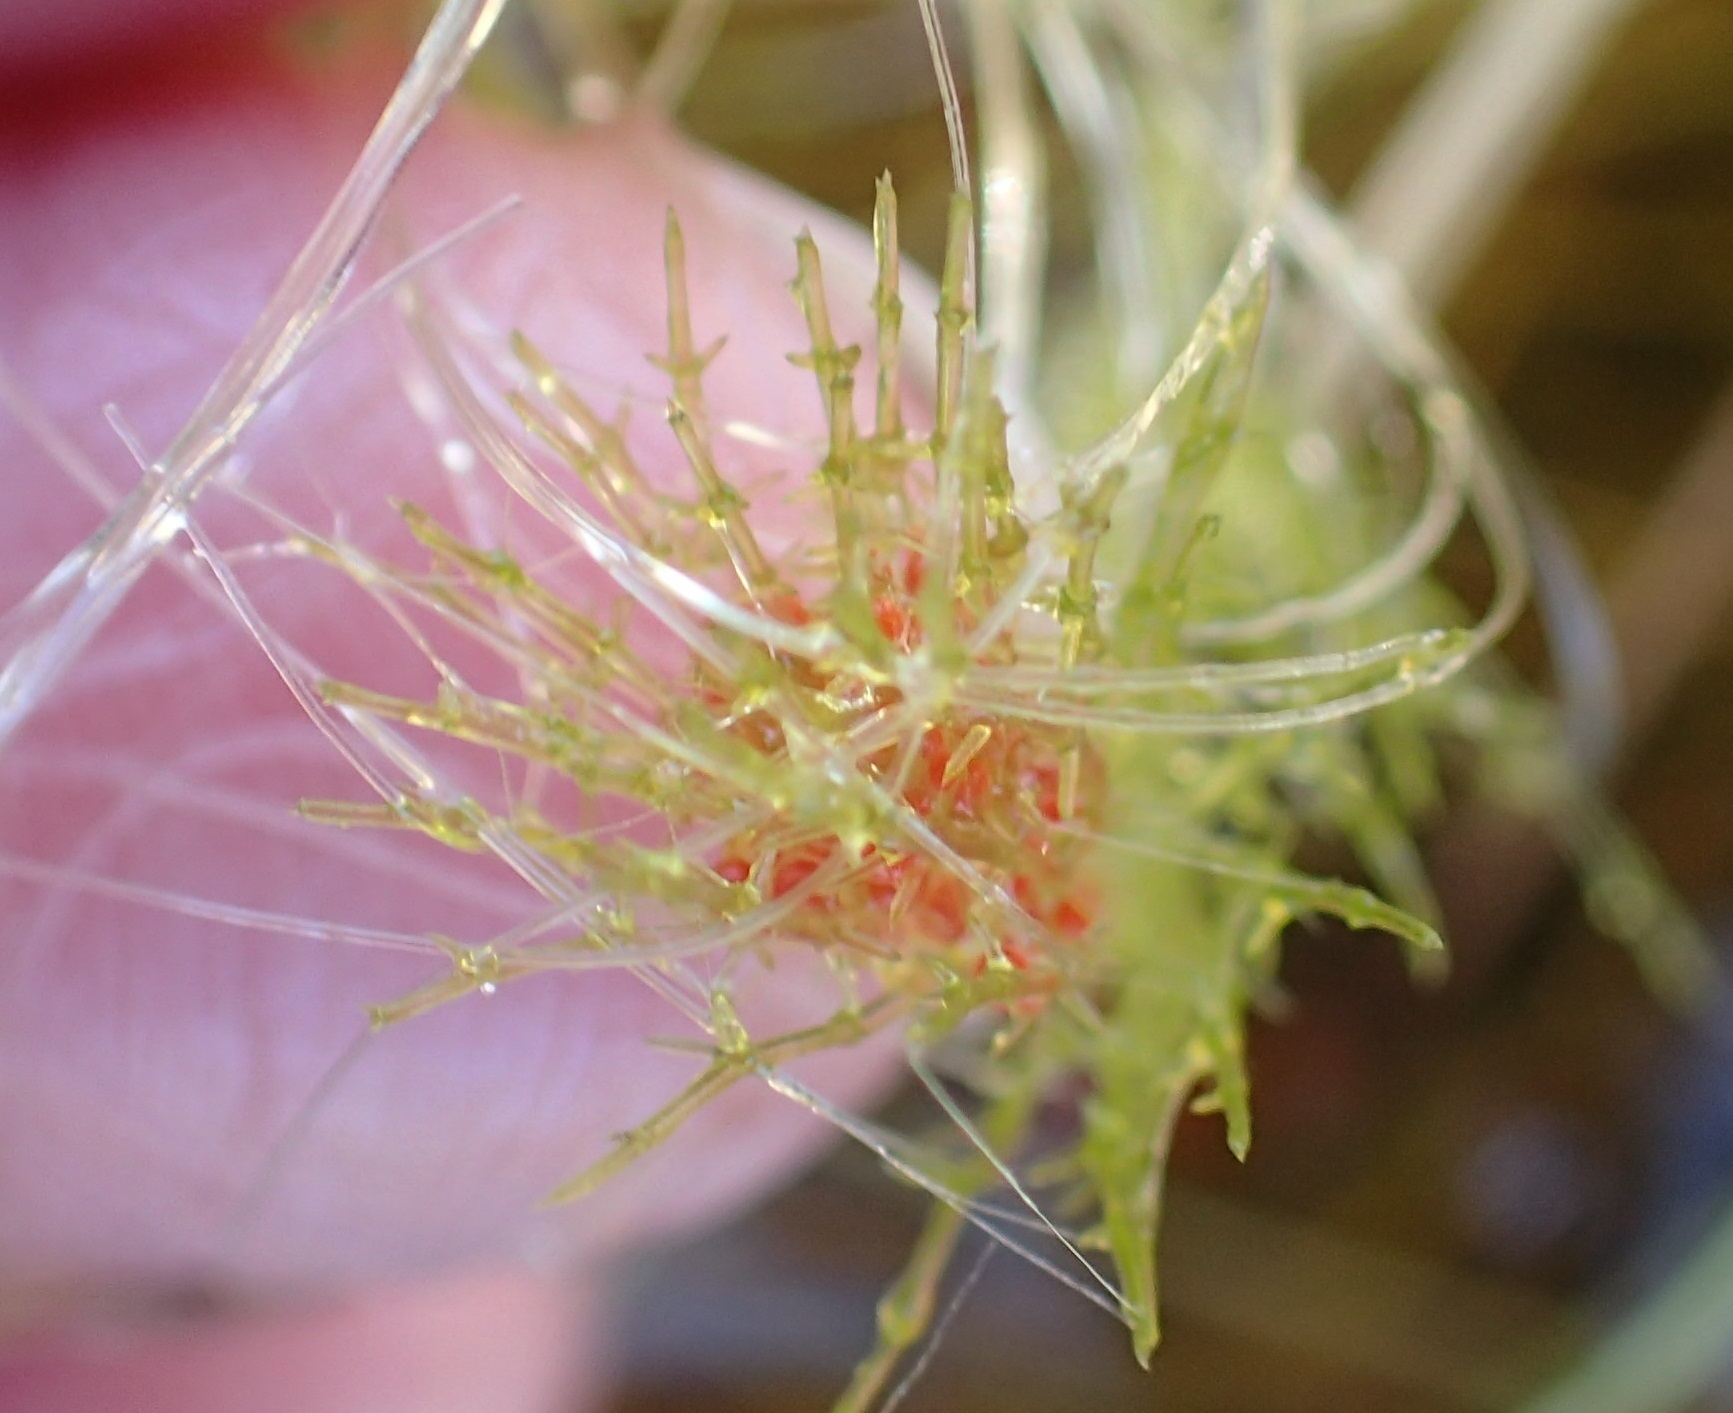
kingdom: Plantae
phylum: Charophyta
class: Charophyceae
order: Charales
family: Characeae
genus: Chara
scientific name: Chara
